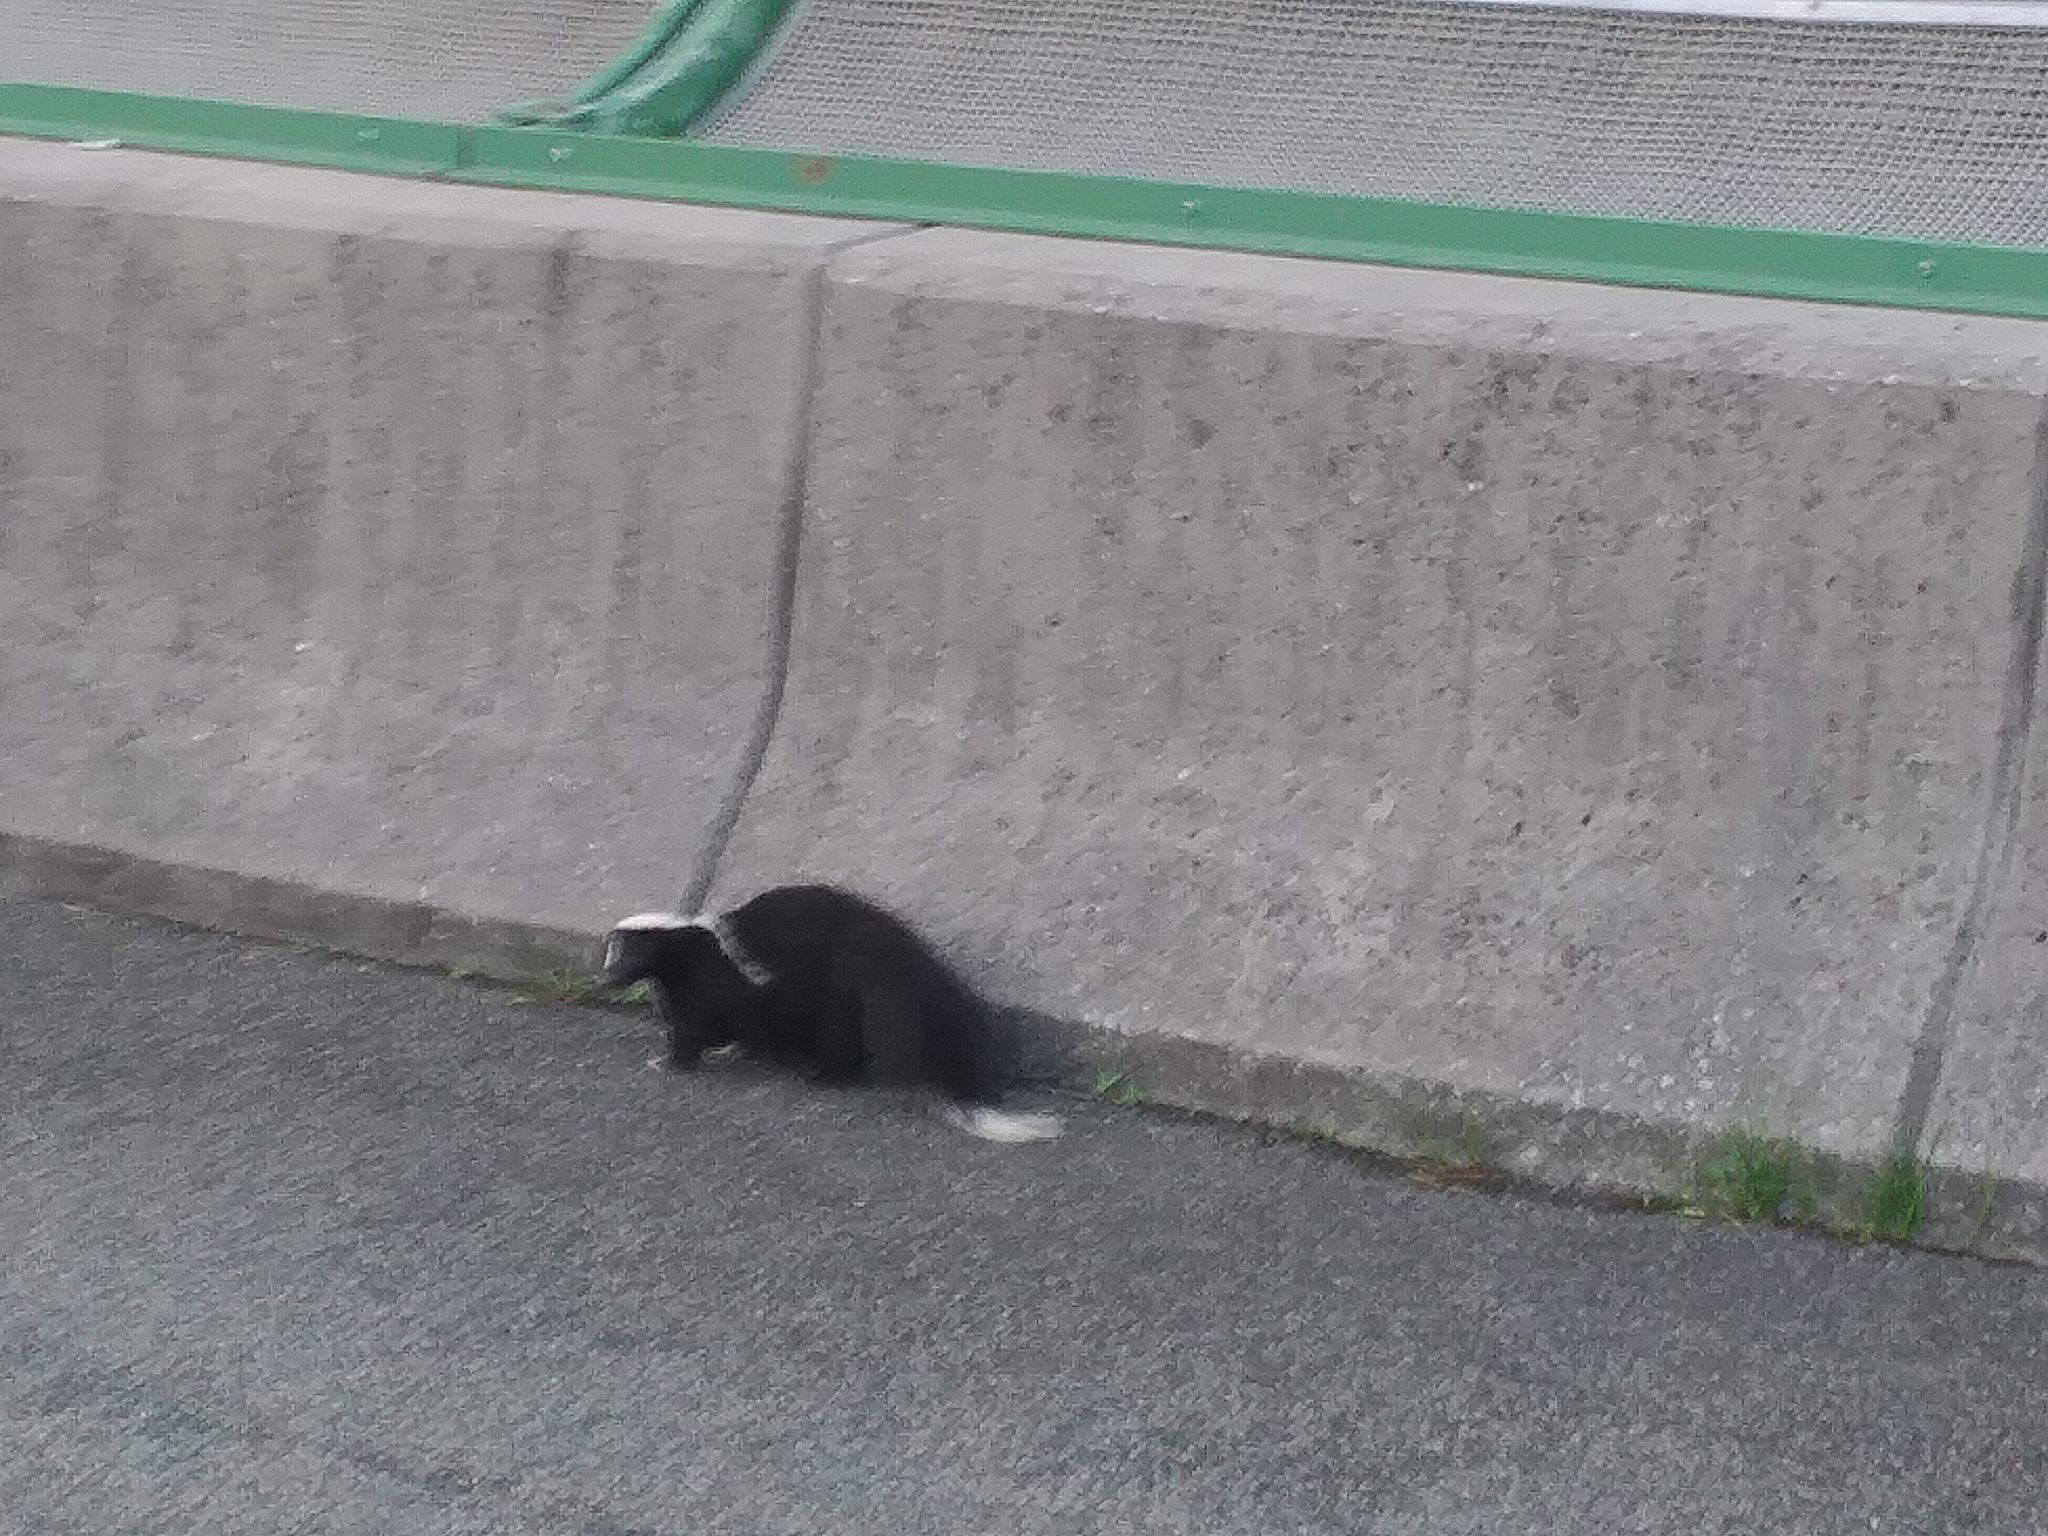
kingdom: Animalia
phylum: Chordata
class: Mammalia
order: Carnivora
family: Mephitidae
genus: Mephitis
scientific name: Mephitis mephitis
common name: Striped skunk
